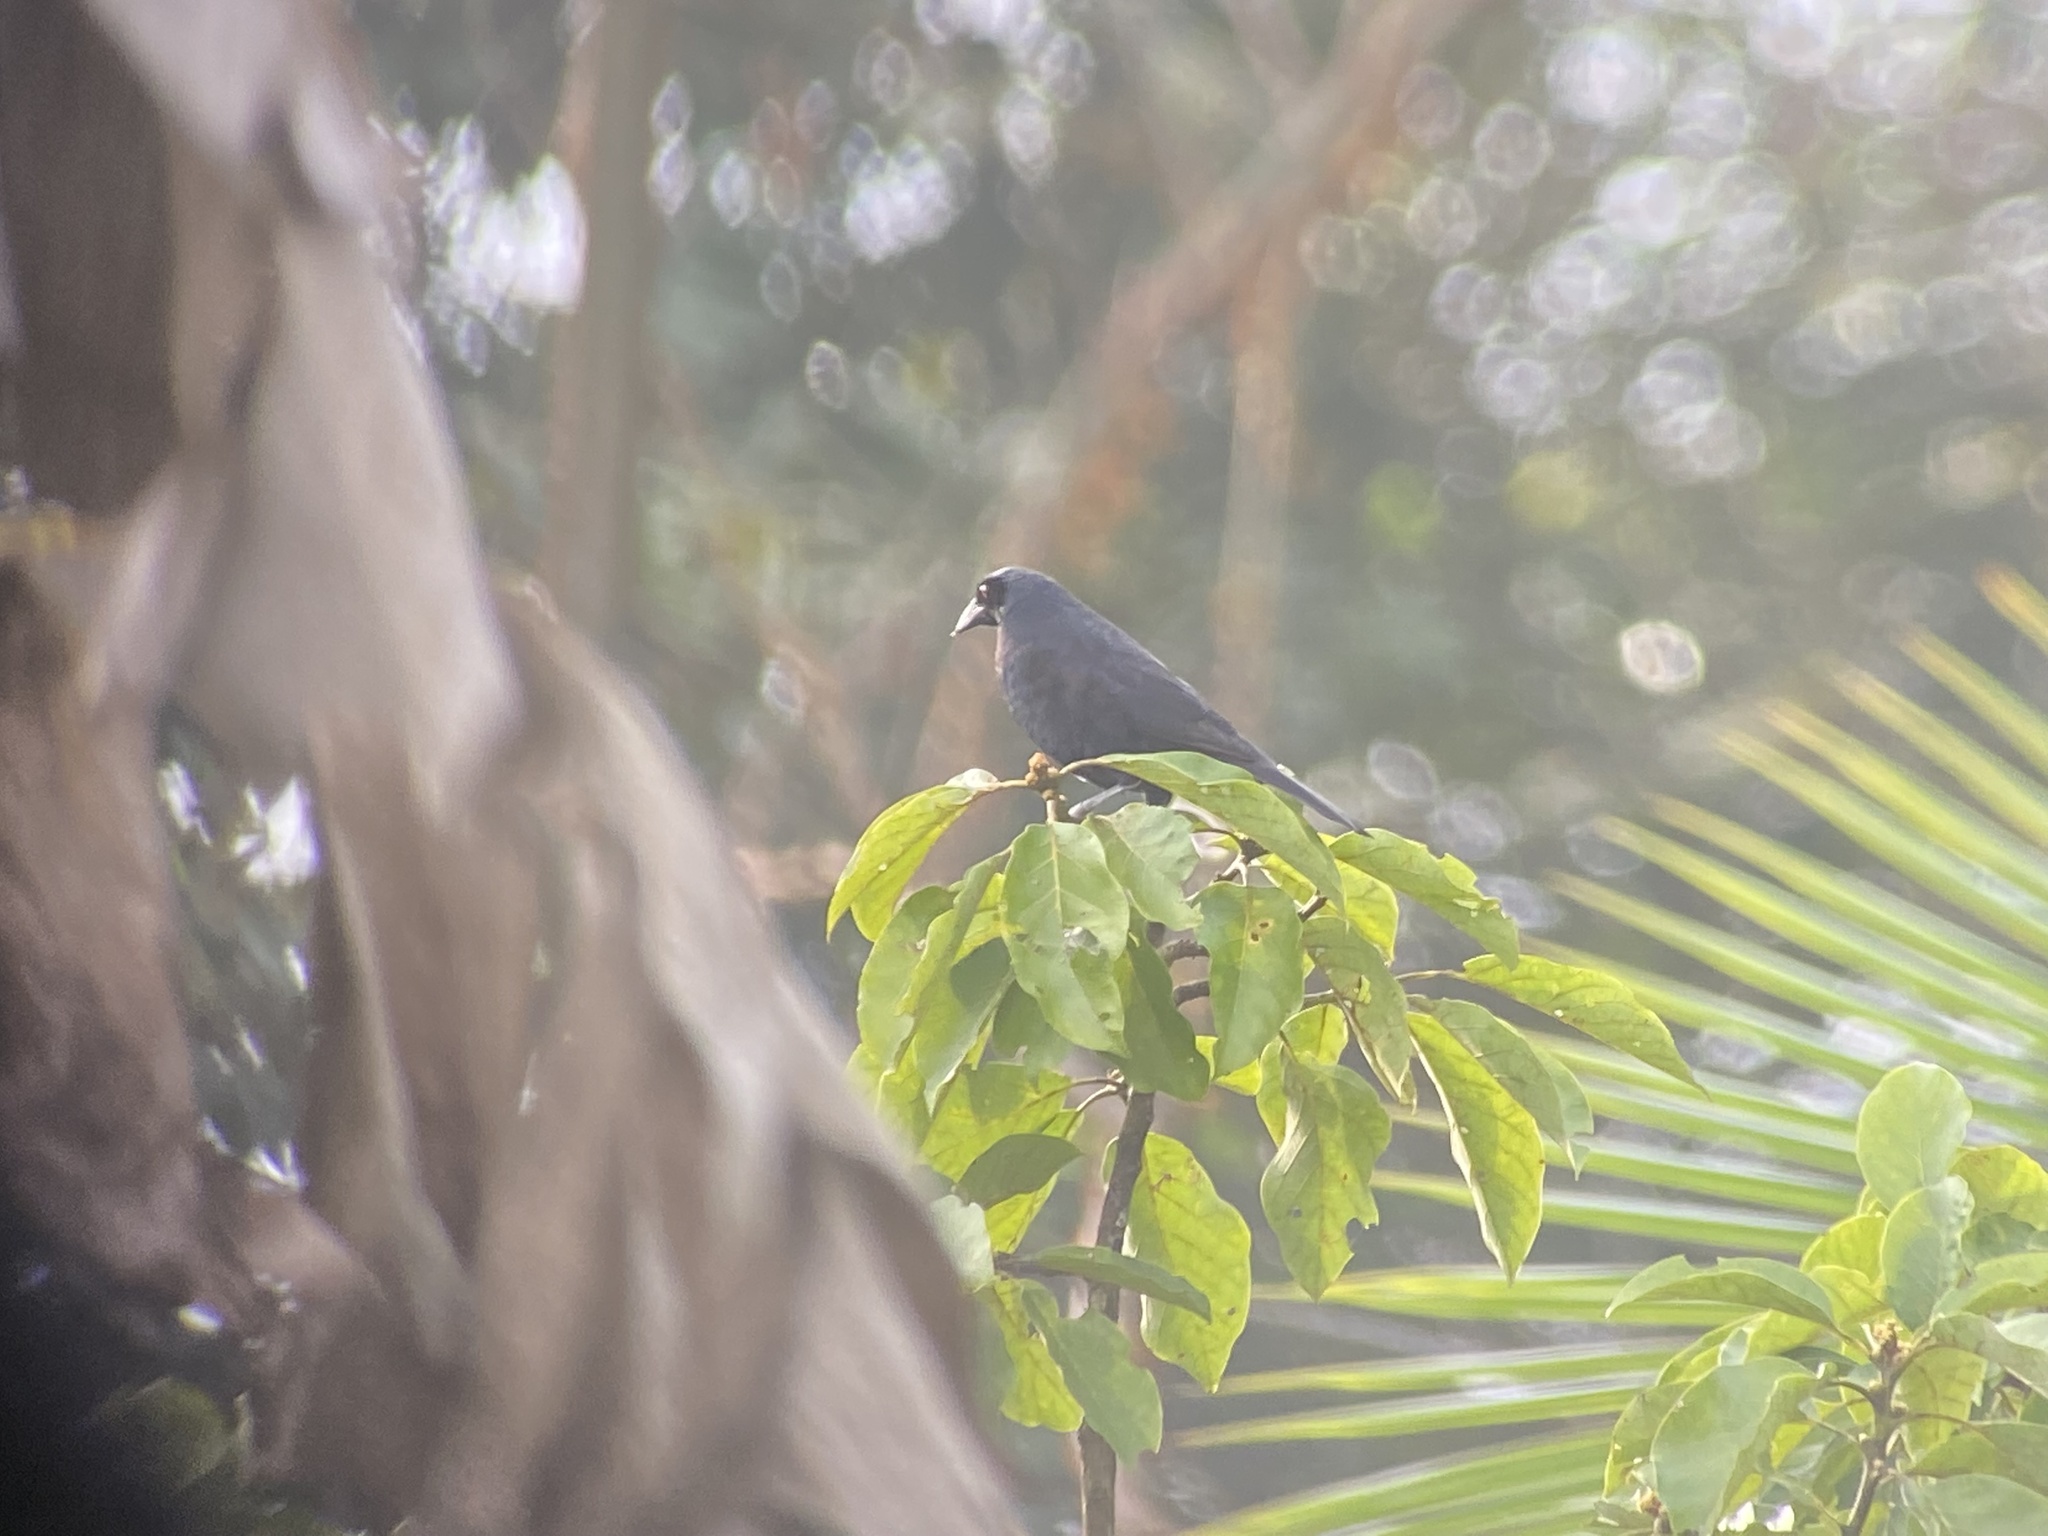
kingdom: Animalia
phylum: Chordata
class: Aves
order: Passeriformes
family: Icteridae
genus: Molothrus
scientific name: Molothrus oryzivorus
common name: Giant cowbird
